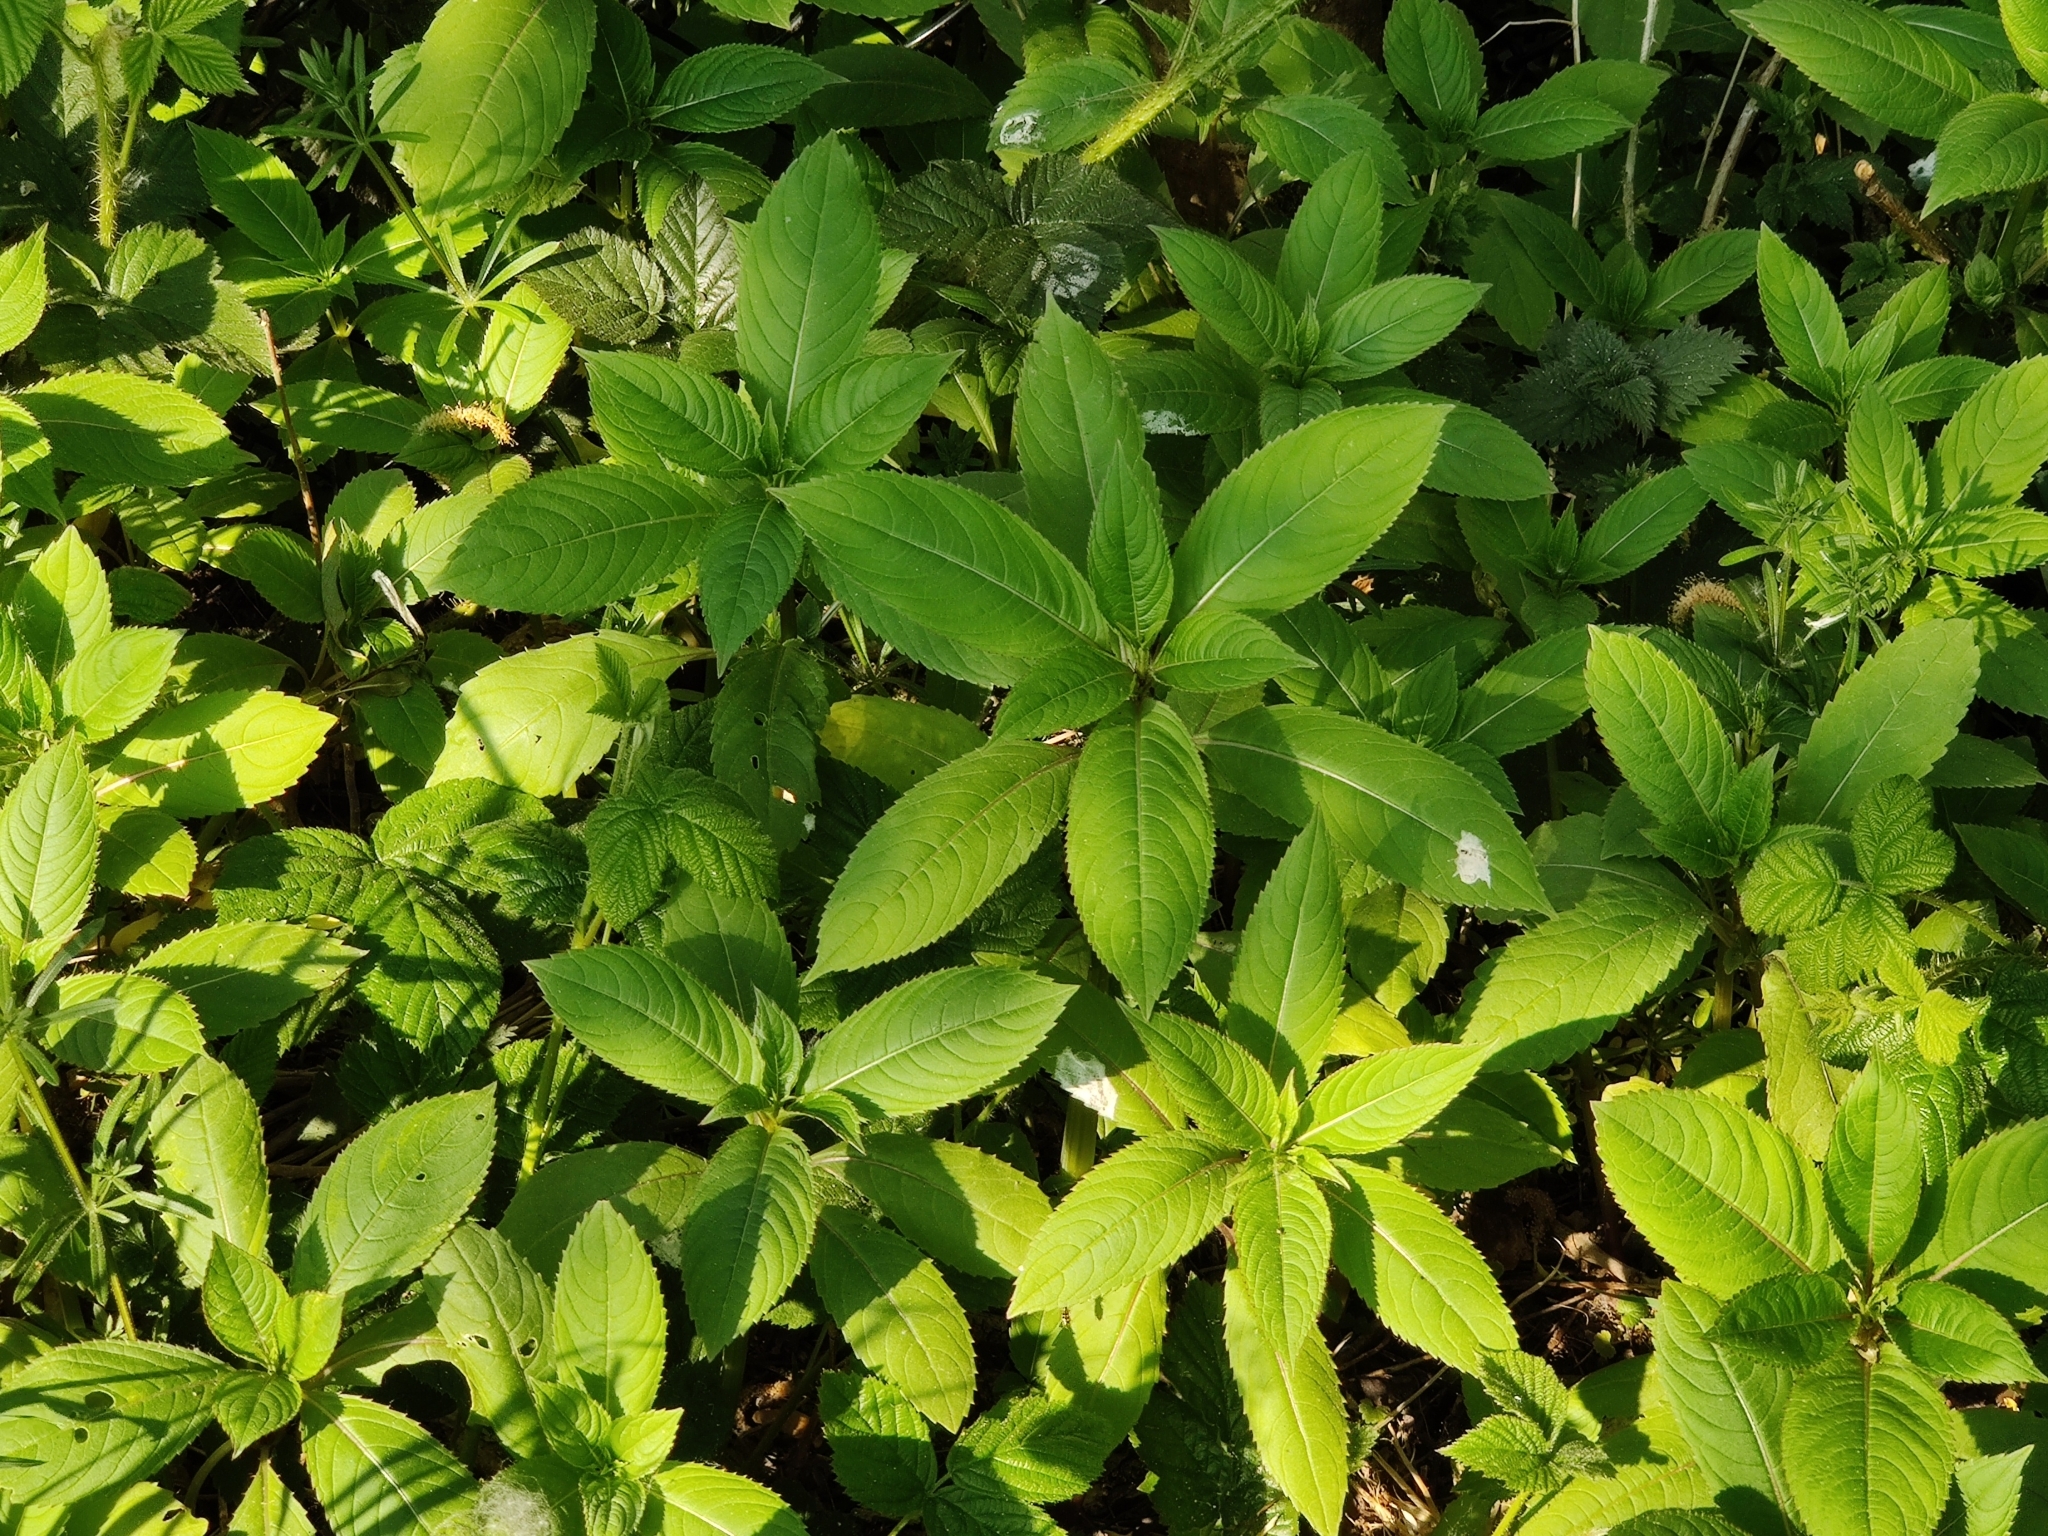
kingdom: Plantae
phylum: Tracheophyta
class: Magnoliopsida
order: Ericales
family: Balsaminaceae
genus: Impatiens
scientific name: Impatiens glandulifera
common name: Himalayan balsam
